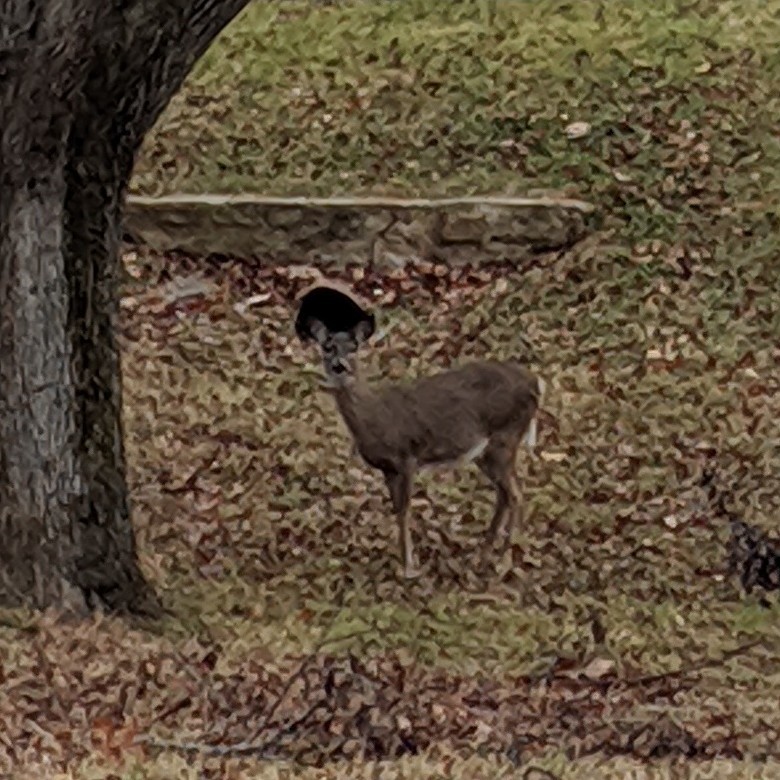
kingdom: Animalia
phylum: Chordata
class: Mammalia
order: Artiodactyla
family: Cervidae
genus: Odocoileus
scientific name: Odocoileus virginianus
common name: White-tailed deer
